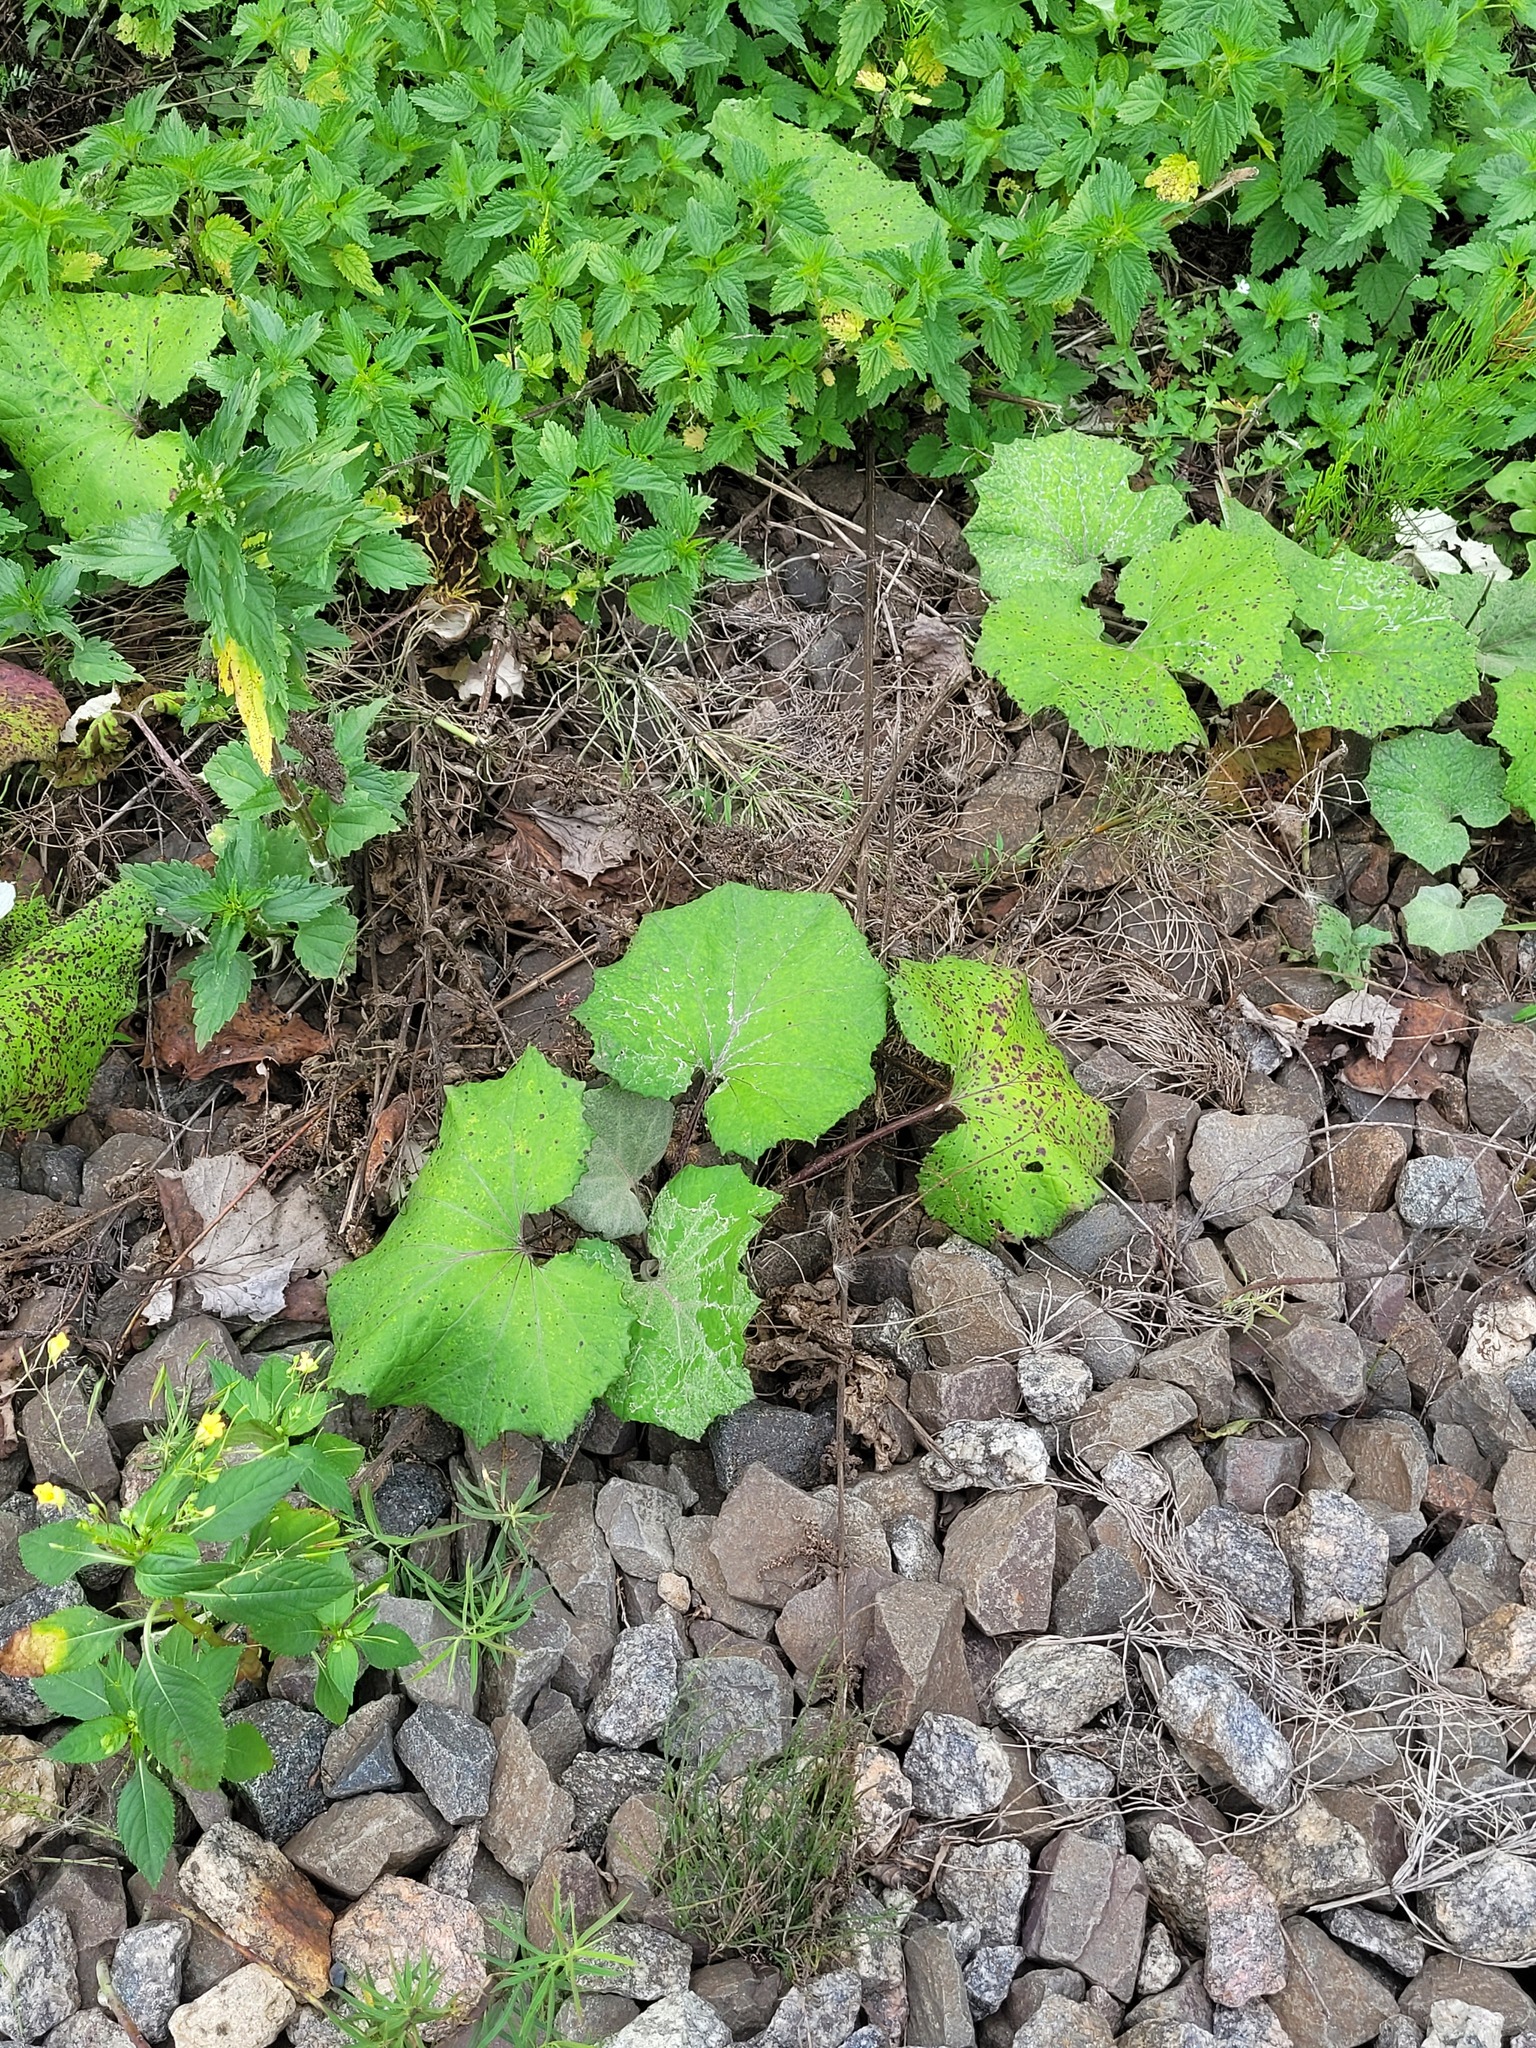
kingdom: Plantae
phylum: Tracheophyta
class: Magnoliopsida
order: Asterales
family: Asteraceae
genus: Tussilago
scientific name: Tussilago farfara
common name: Coltsfoot
